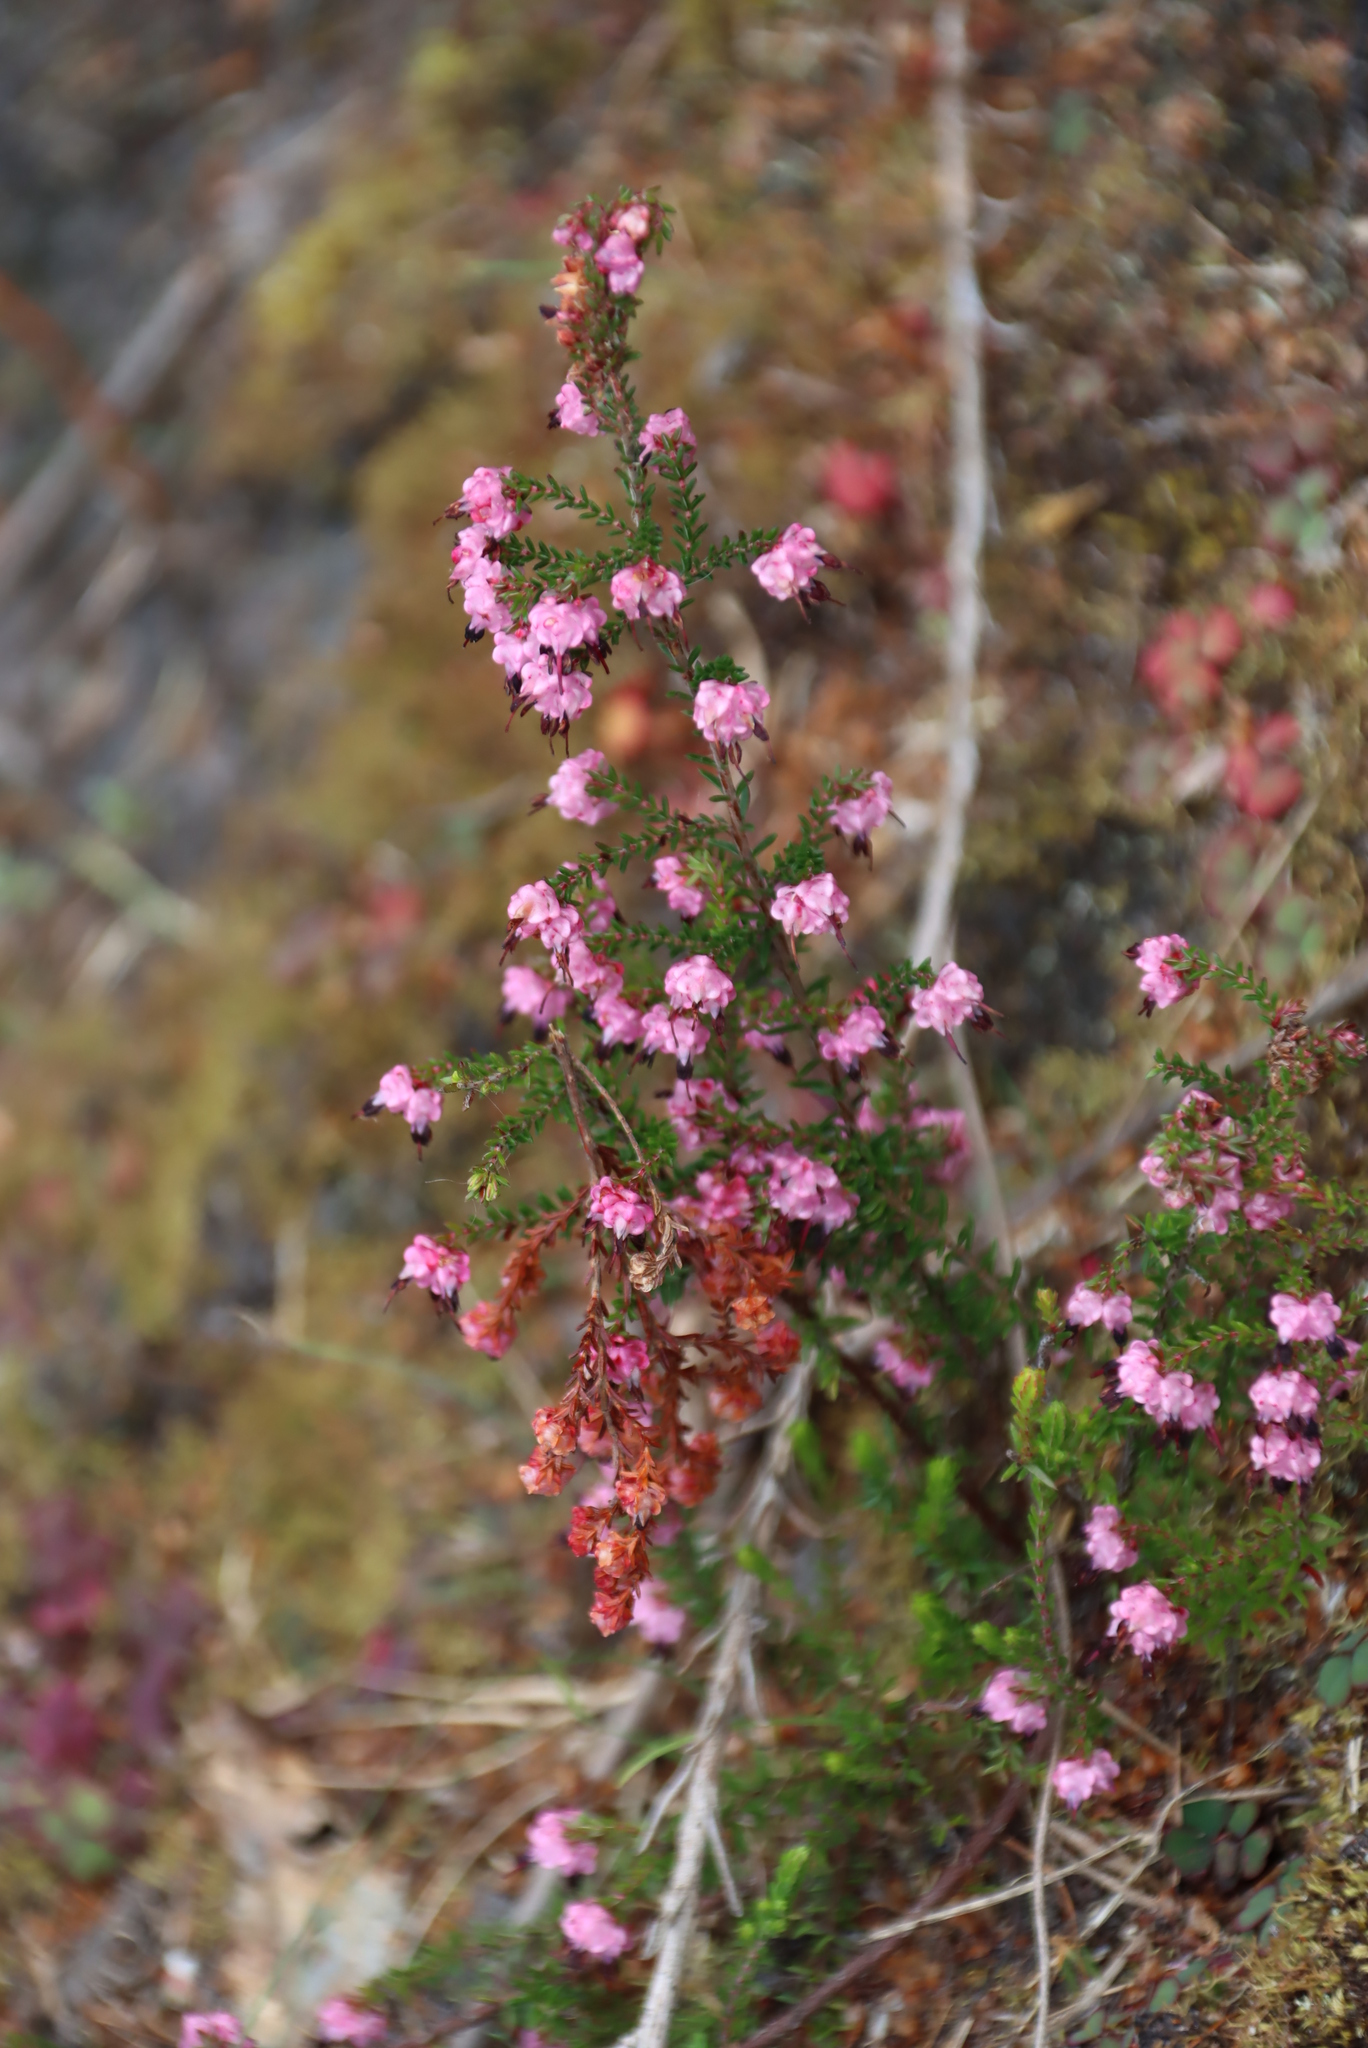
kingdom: Plantae
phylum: Tracheophyta
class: Magnoliopsida
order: Ericales
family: Ericaceae
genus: Erica
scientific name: Erica spumosa
